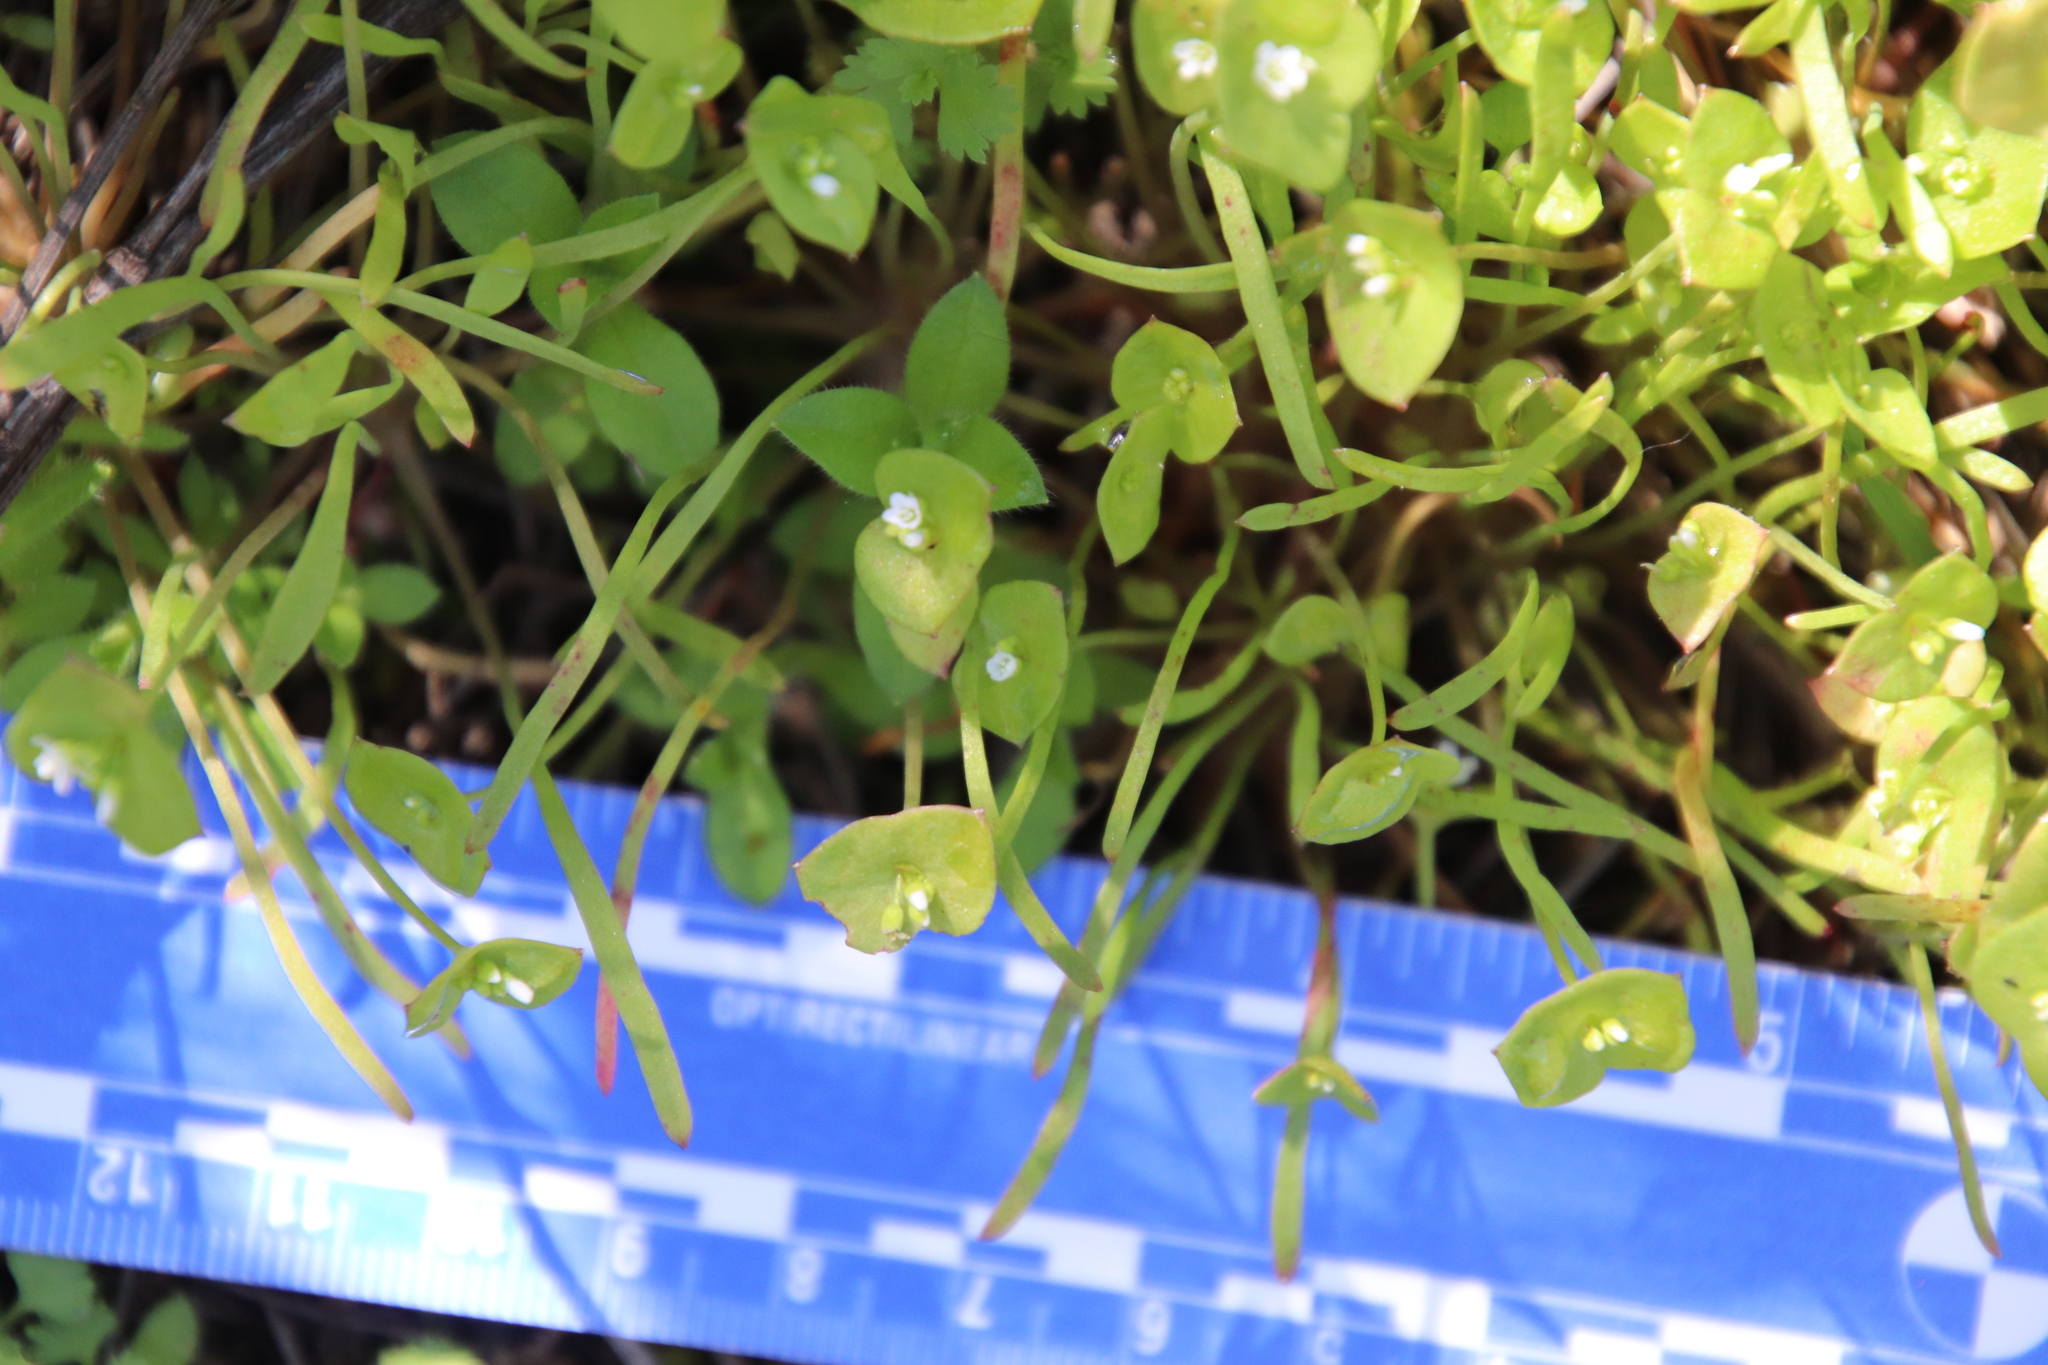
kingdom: Plantae
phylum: Tracheophyta
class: Magnoliopsida
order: Caryophyllales
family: Montiaceae
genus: Claytonia
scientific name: Claytonia parviflora
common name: Indian-lettuce
